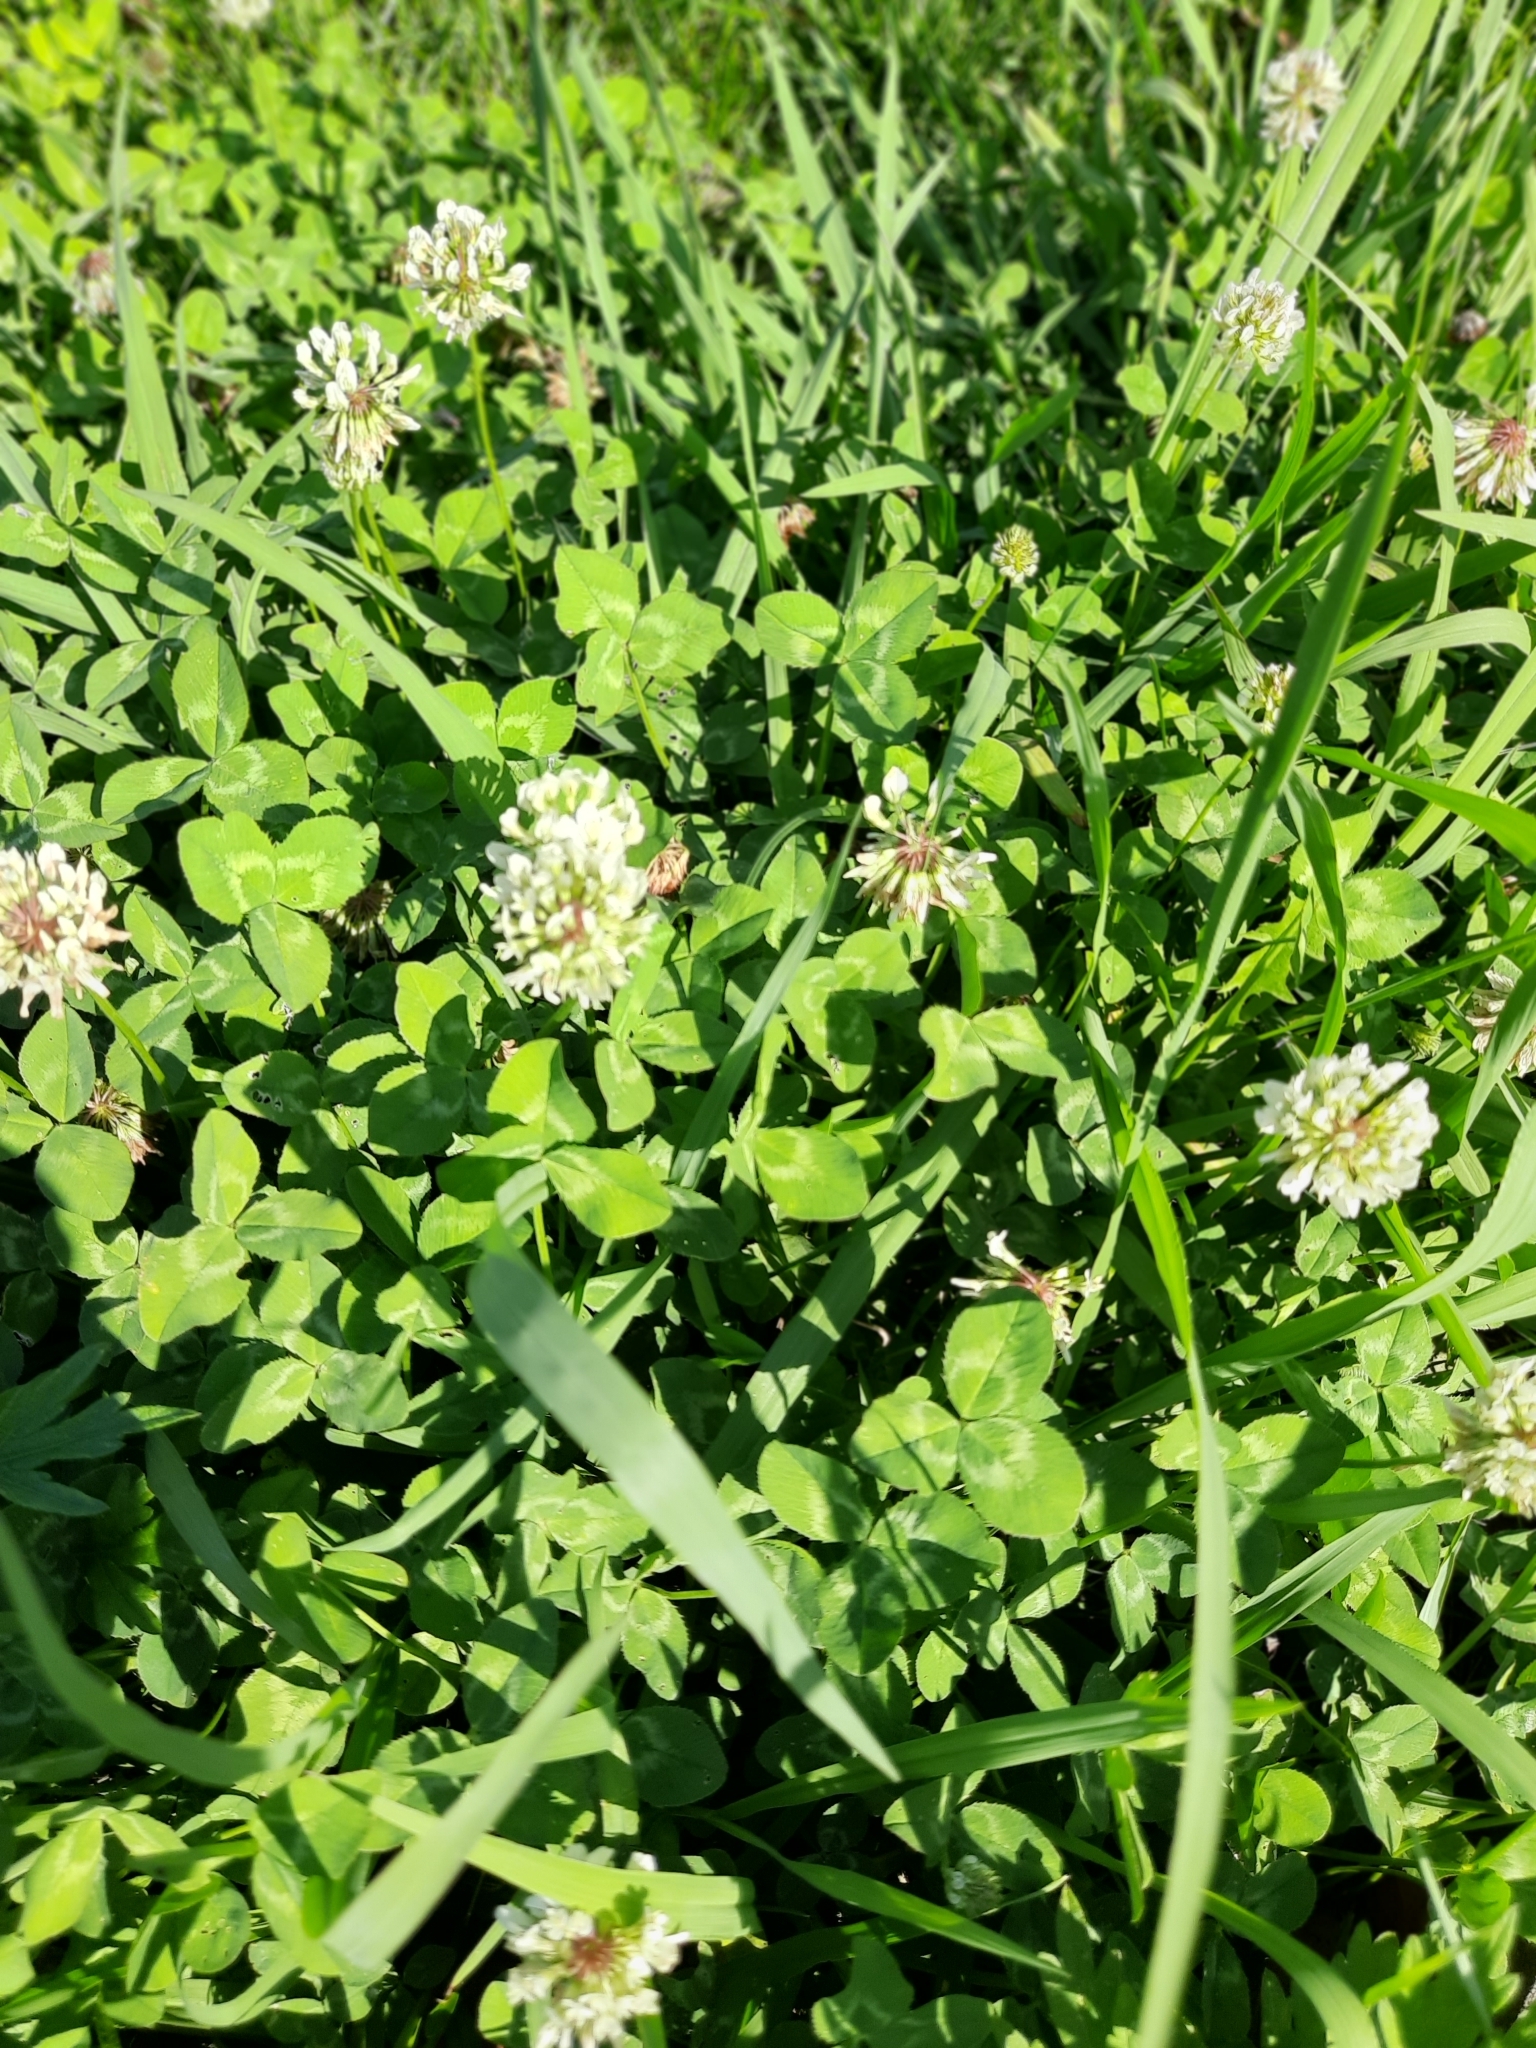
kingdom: Plantae
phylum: Tracheophyta
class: Magnoliopsida
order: Fabales
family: Fabaceae
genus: Trifolium
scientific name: Trifolium repens
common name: White clover
